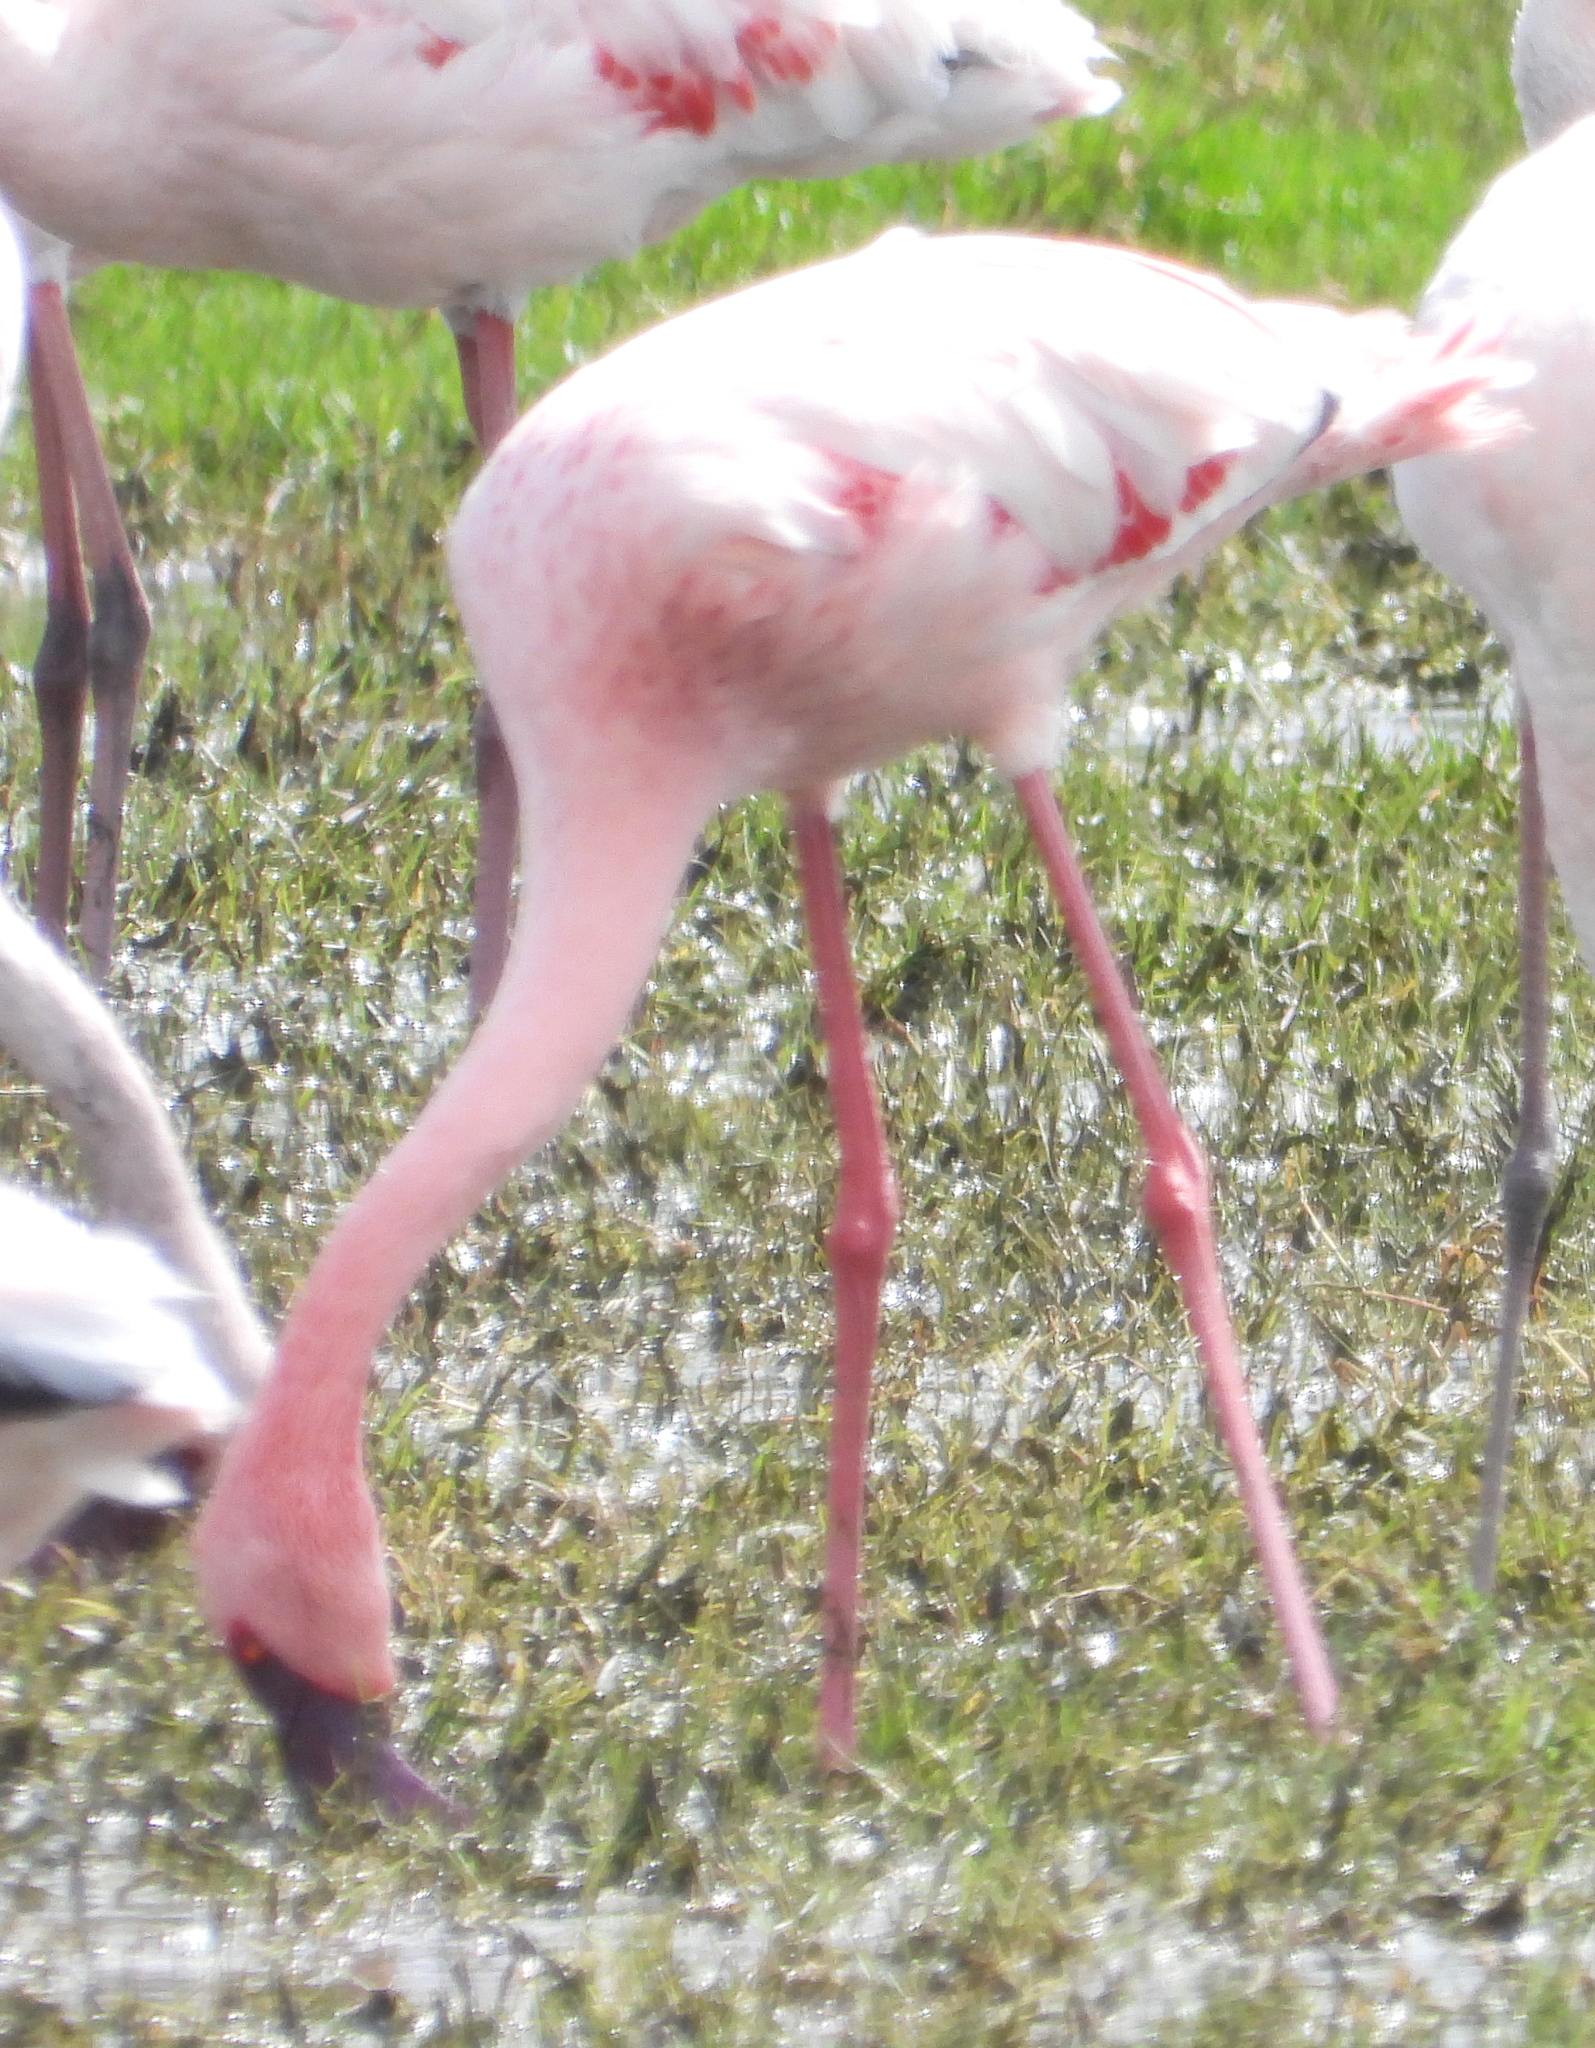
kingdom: Animalia
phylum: Chordata
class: Aves
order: Phoenicopteriformes
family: Phoenicopteridae
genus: Phoeniconaias
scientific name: Phoeniconaias minor
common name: Lesser flamingo
